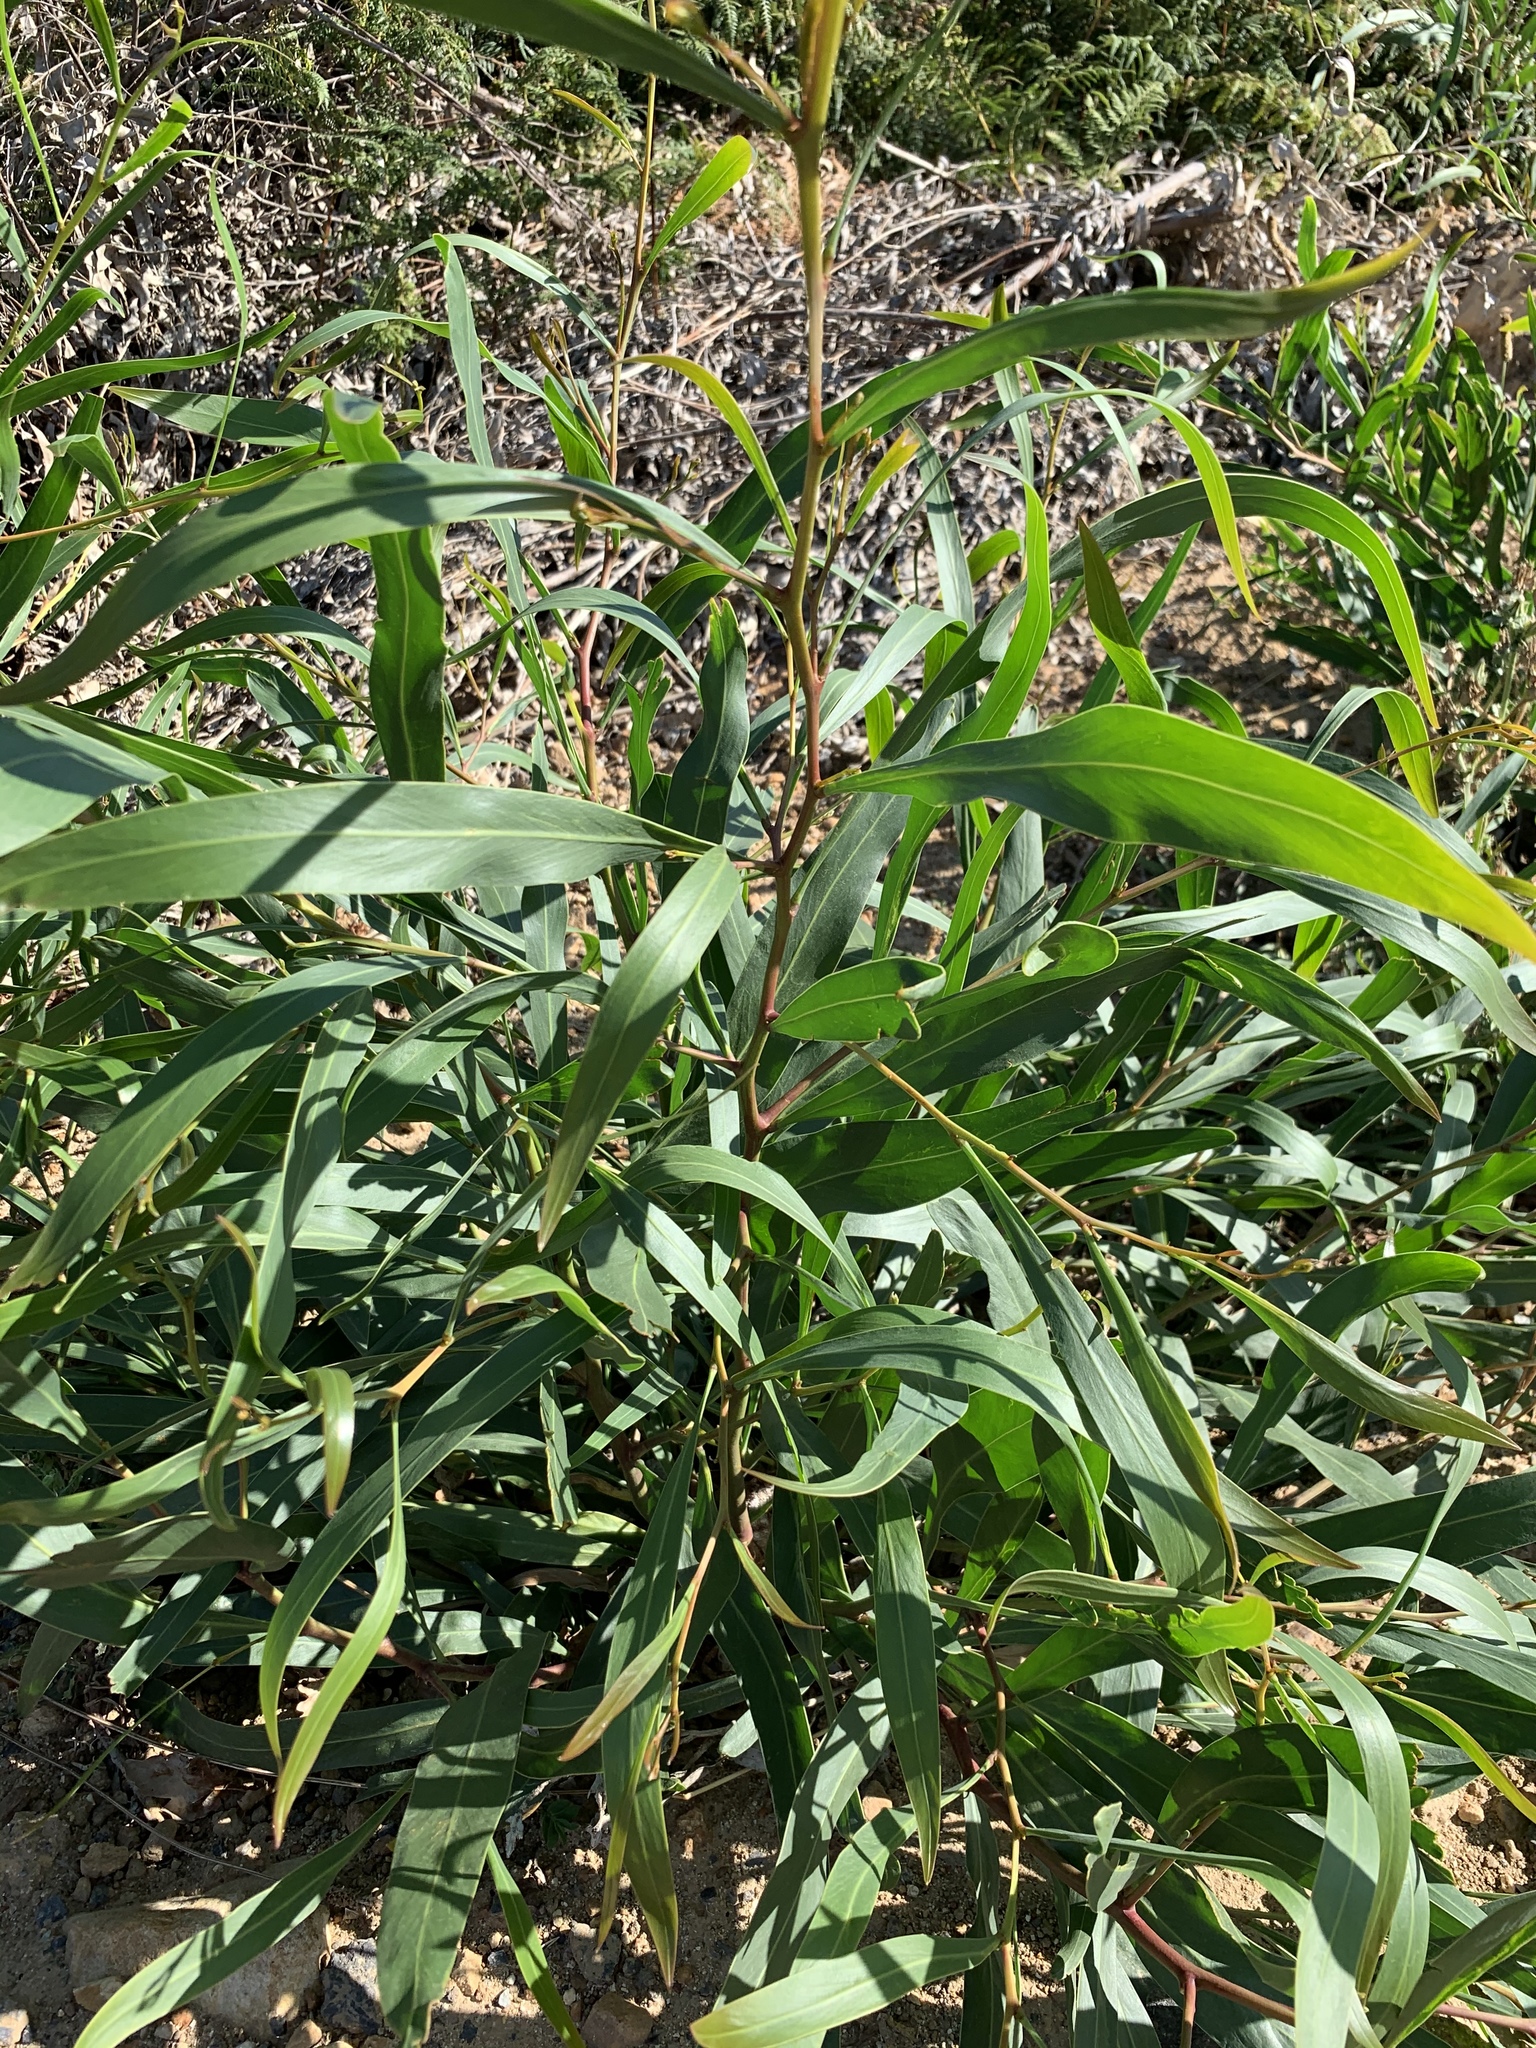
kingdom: Plantae
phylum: Tracheophyta
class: Magnoliopsida
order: Fabales
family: Fabaceae
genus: Acacia
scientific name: Acacia saligna
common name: Orange wattle
